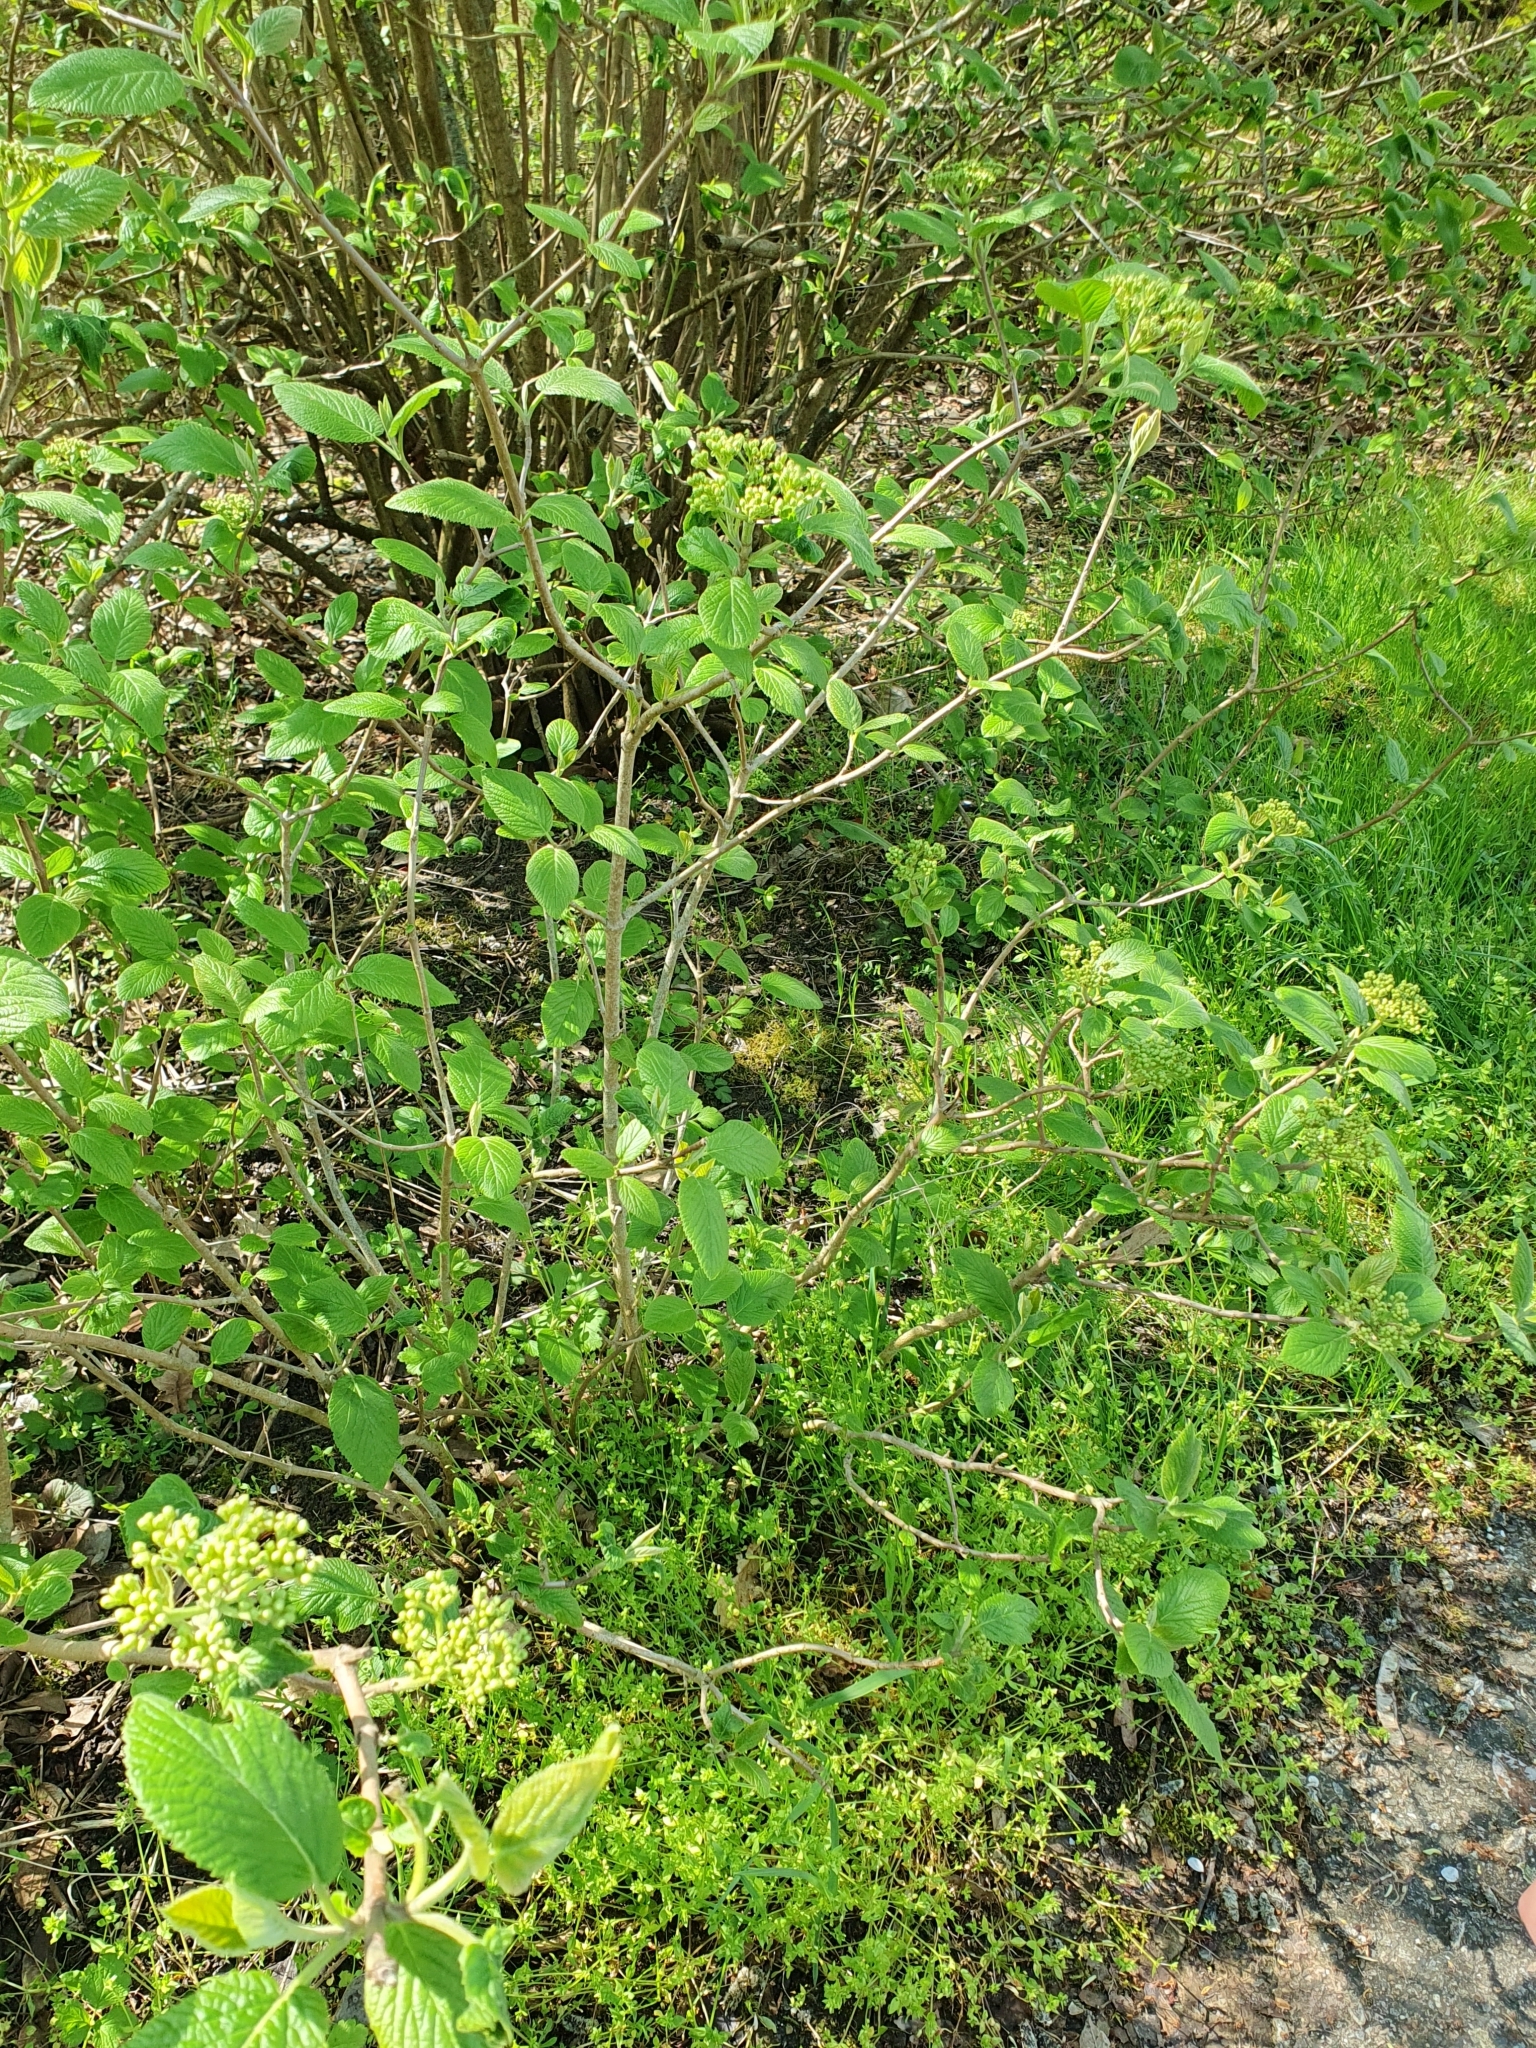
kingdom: Plantae
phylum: Tracheophyta
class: Magnoliopsida
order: Dipsacales
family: Viburnaceae
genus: Viburnum
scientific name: Viburnum lantana
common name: Wayfaring tree
